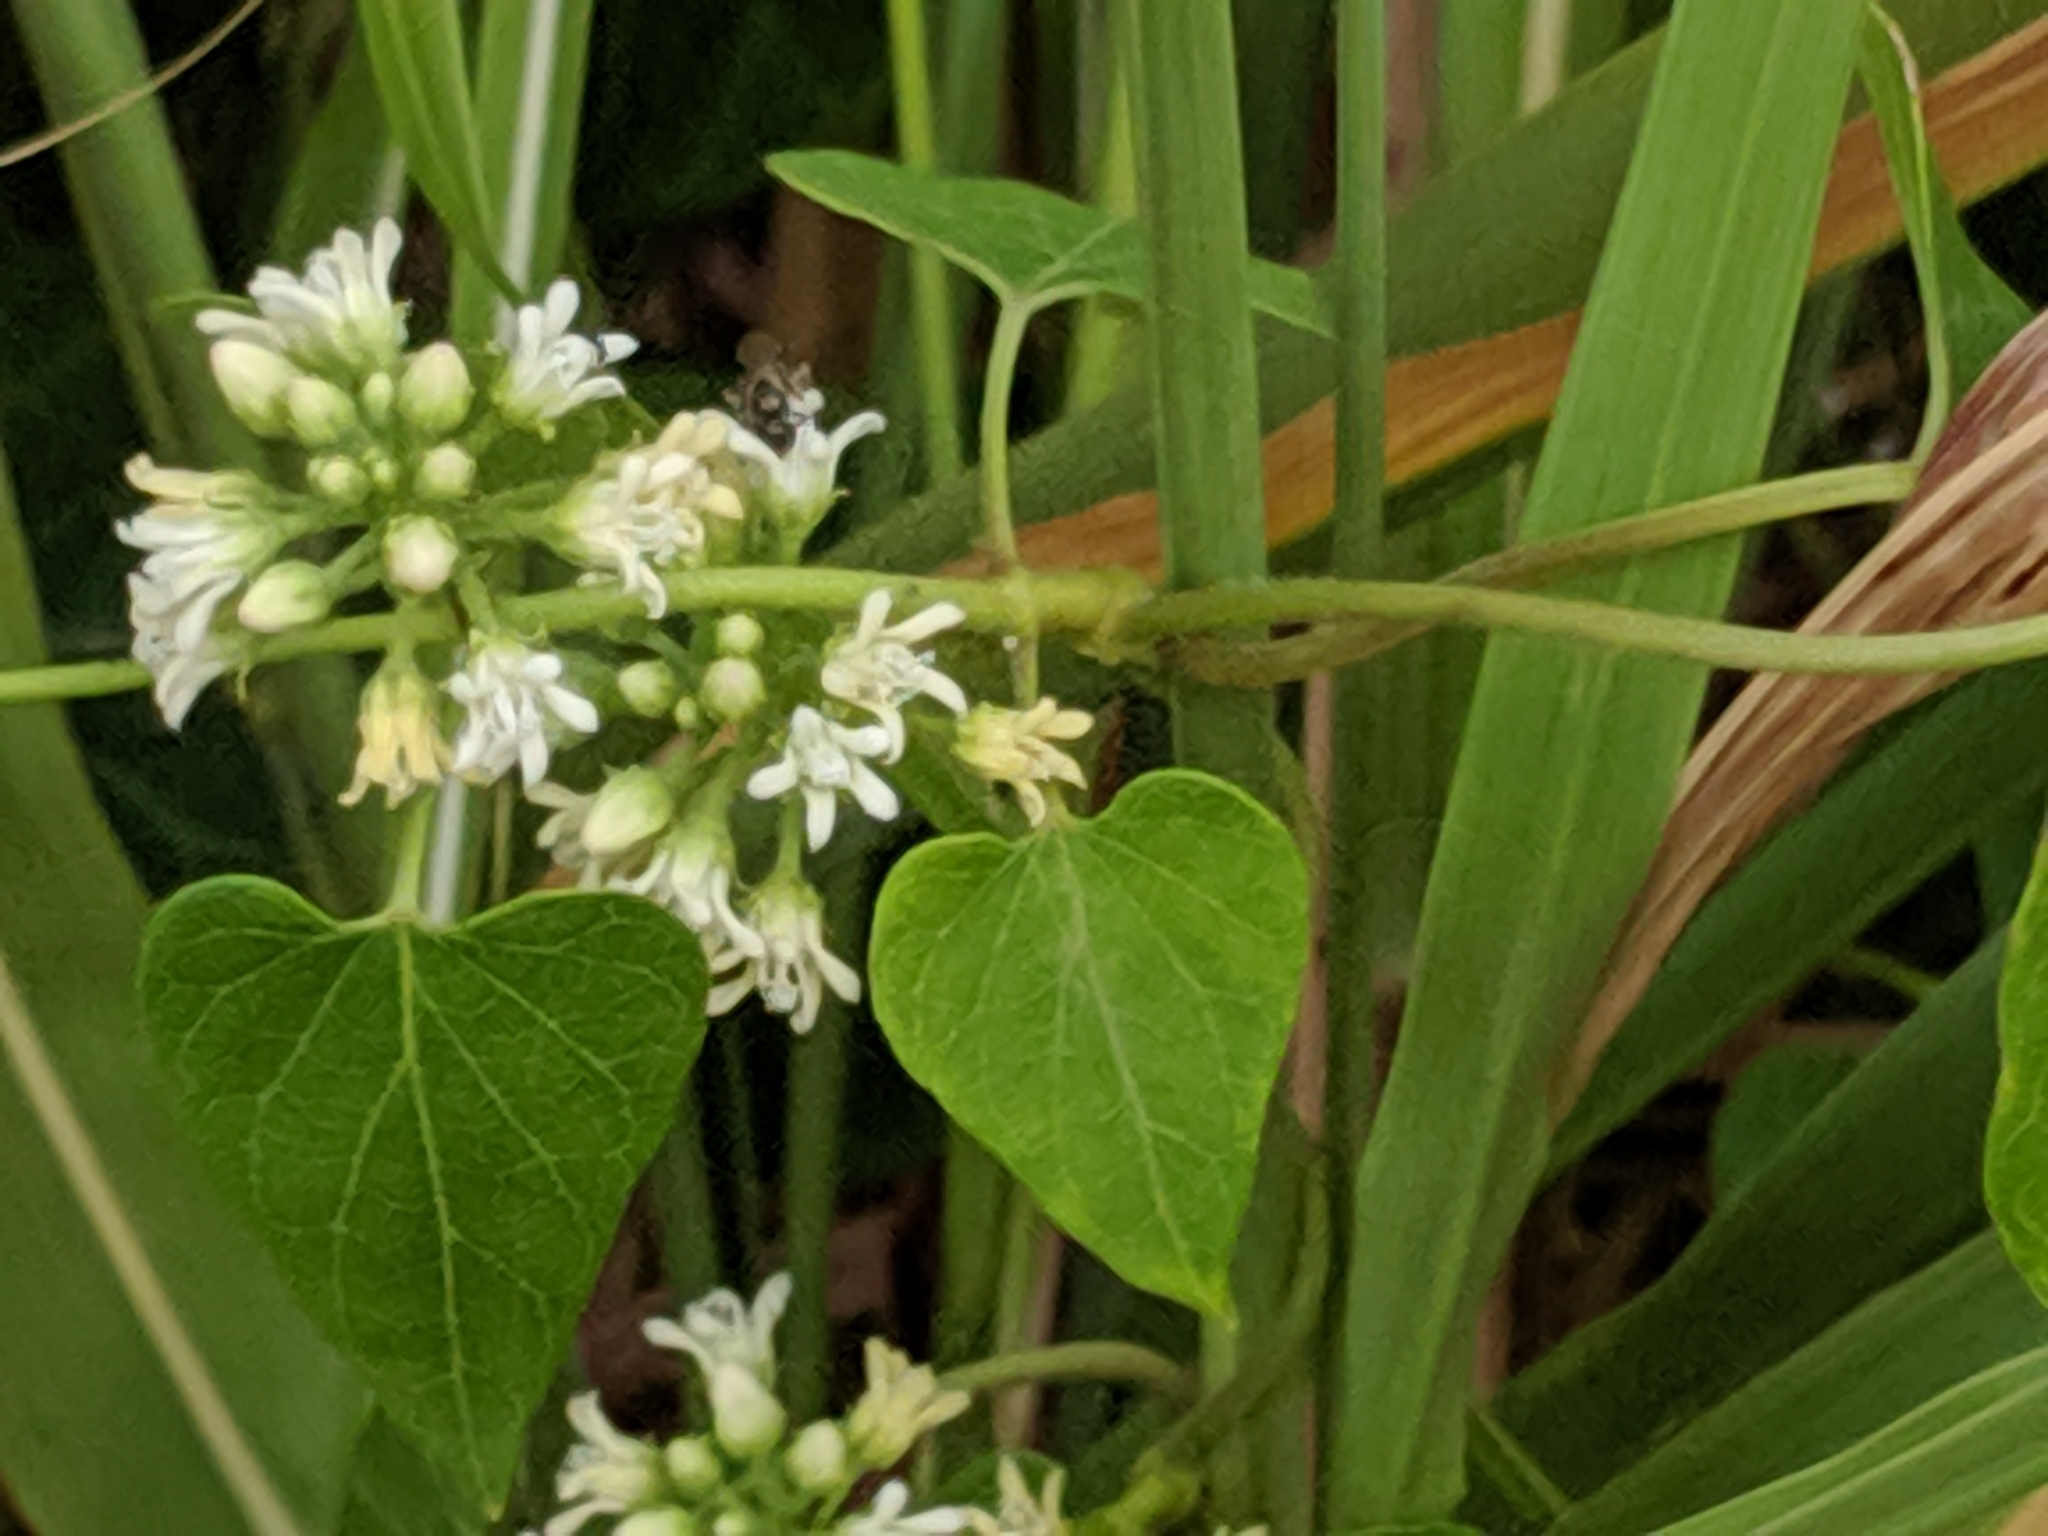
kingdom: Plantae
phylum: Tracheophyta
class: Magnoliopsida
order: Gentianales
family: Apocynaceae
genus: Cynanchum
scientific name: Cynanchum laeve
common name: Sandvine
